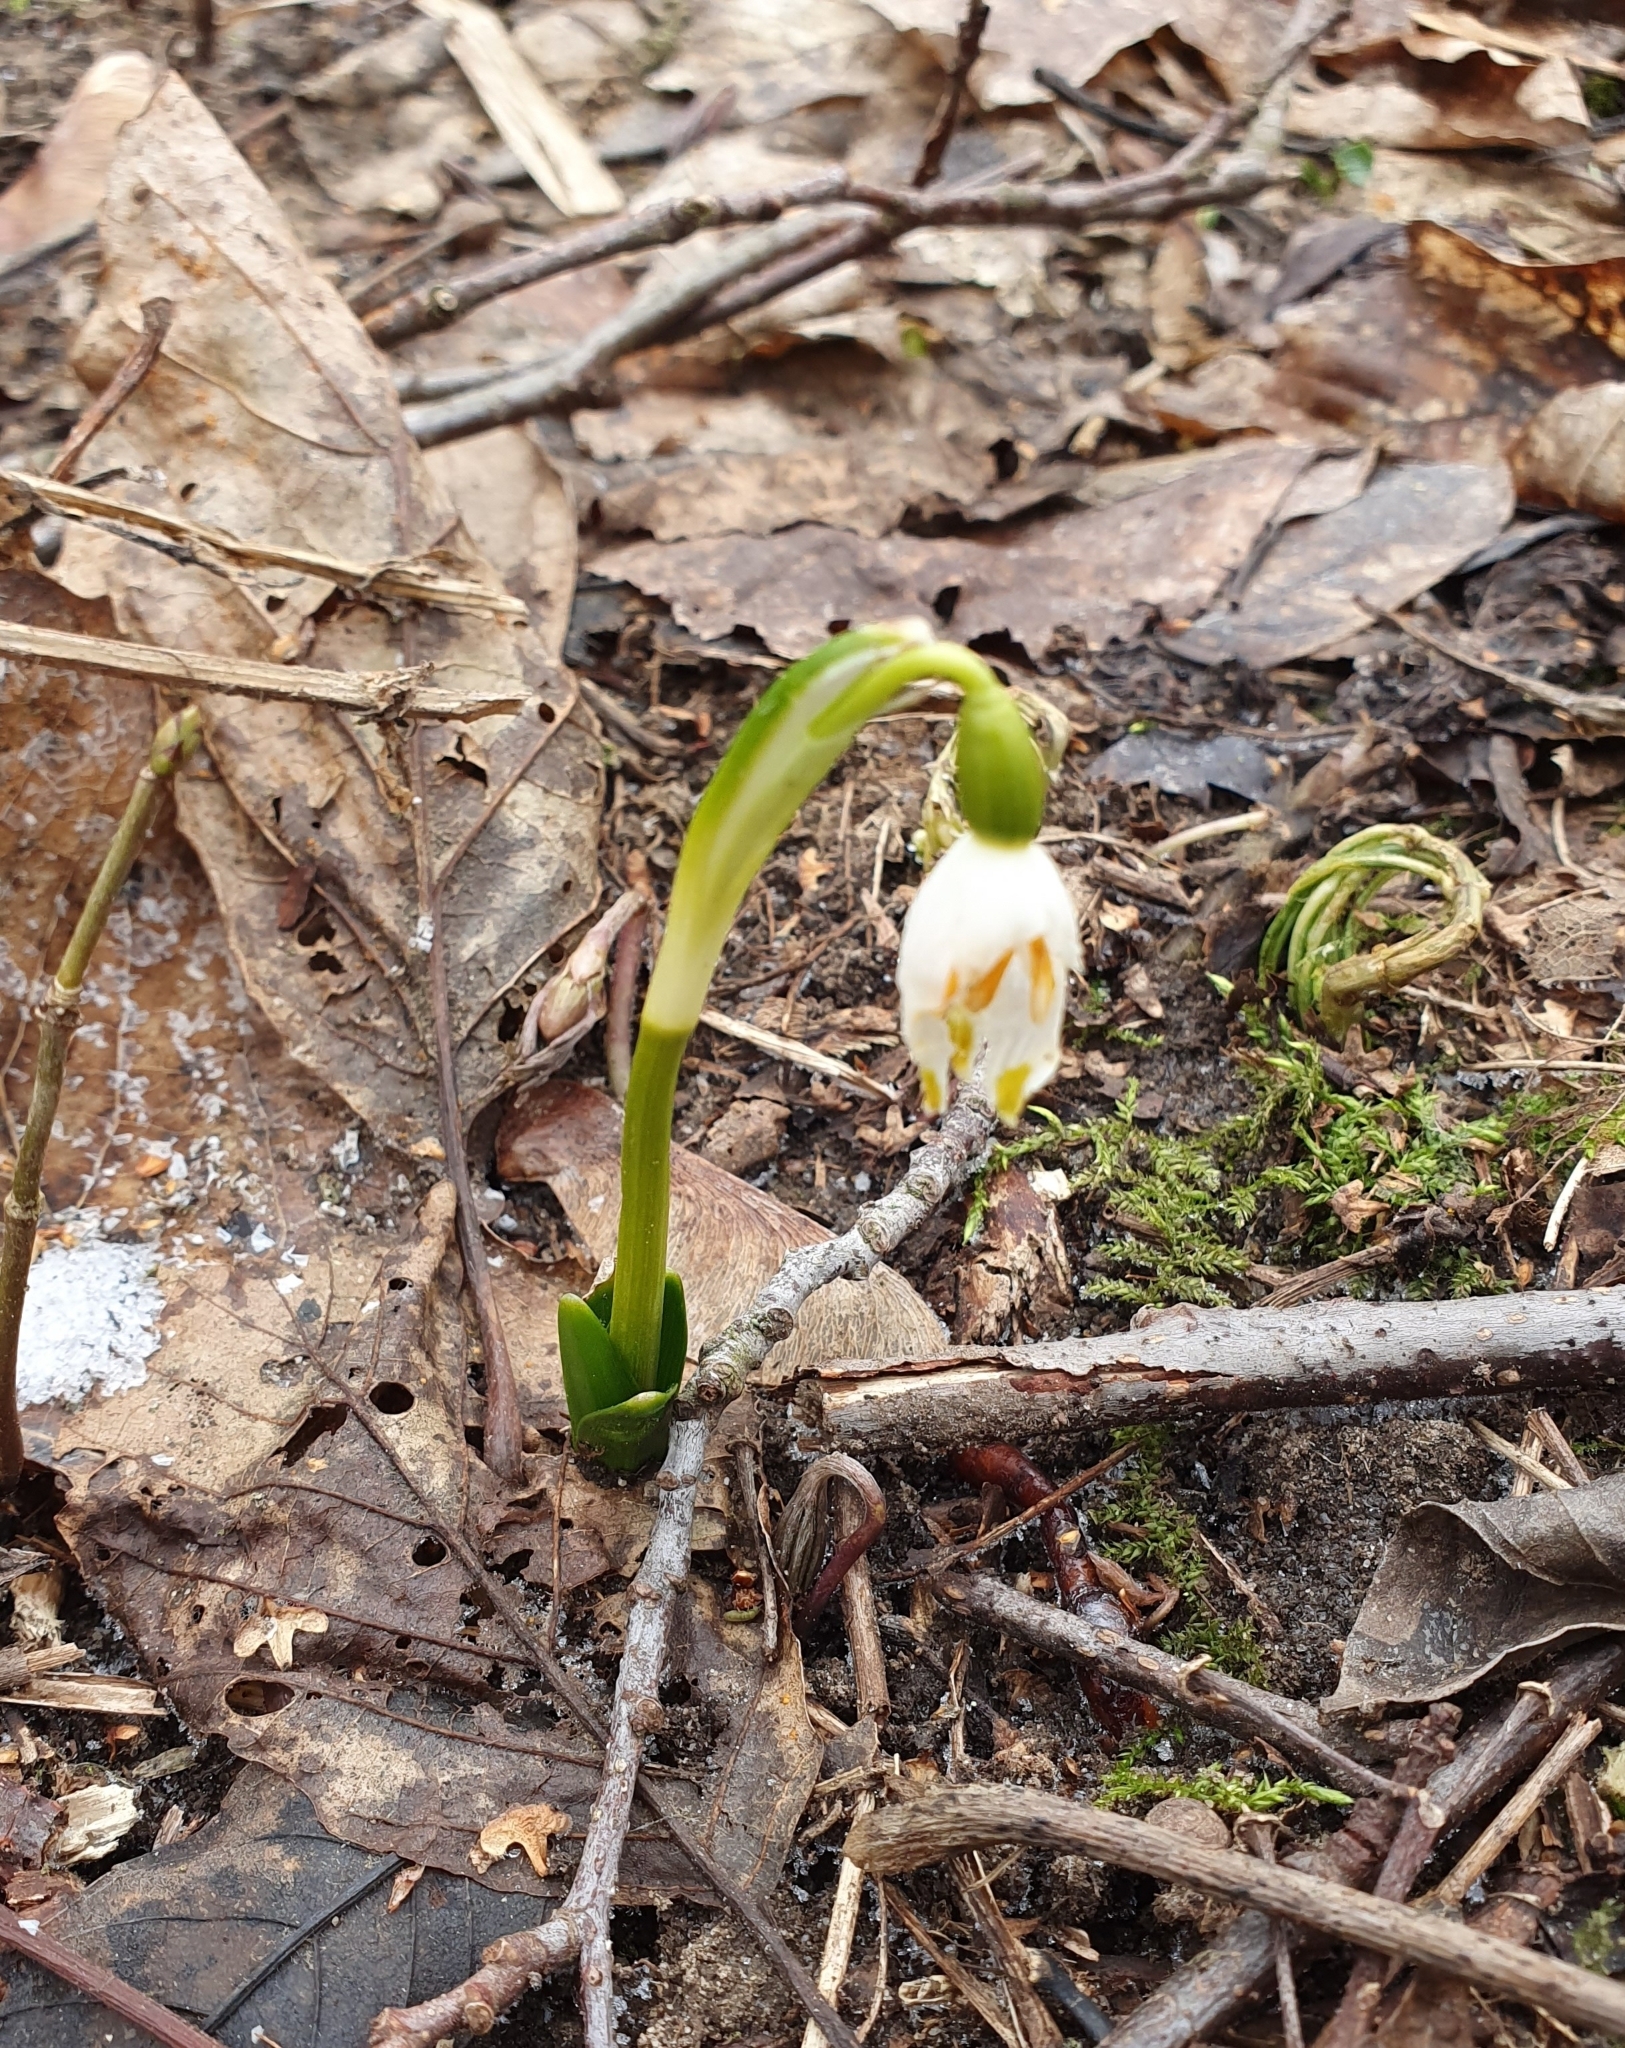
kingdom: Plantae
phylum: Tracheophyta
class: Liliopsida
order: Asparagales
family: Amaryllidaceae
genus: Leucojum
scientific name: Leucojum vernum
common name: Spring snowflake
